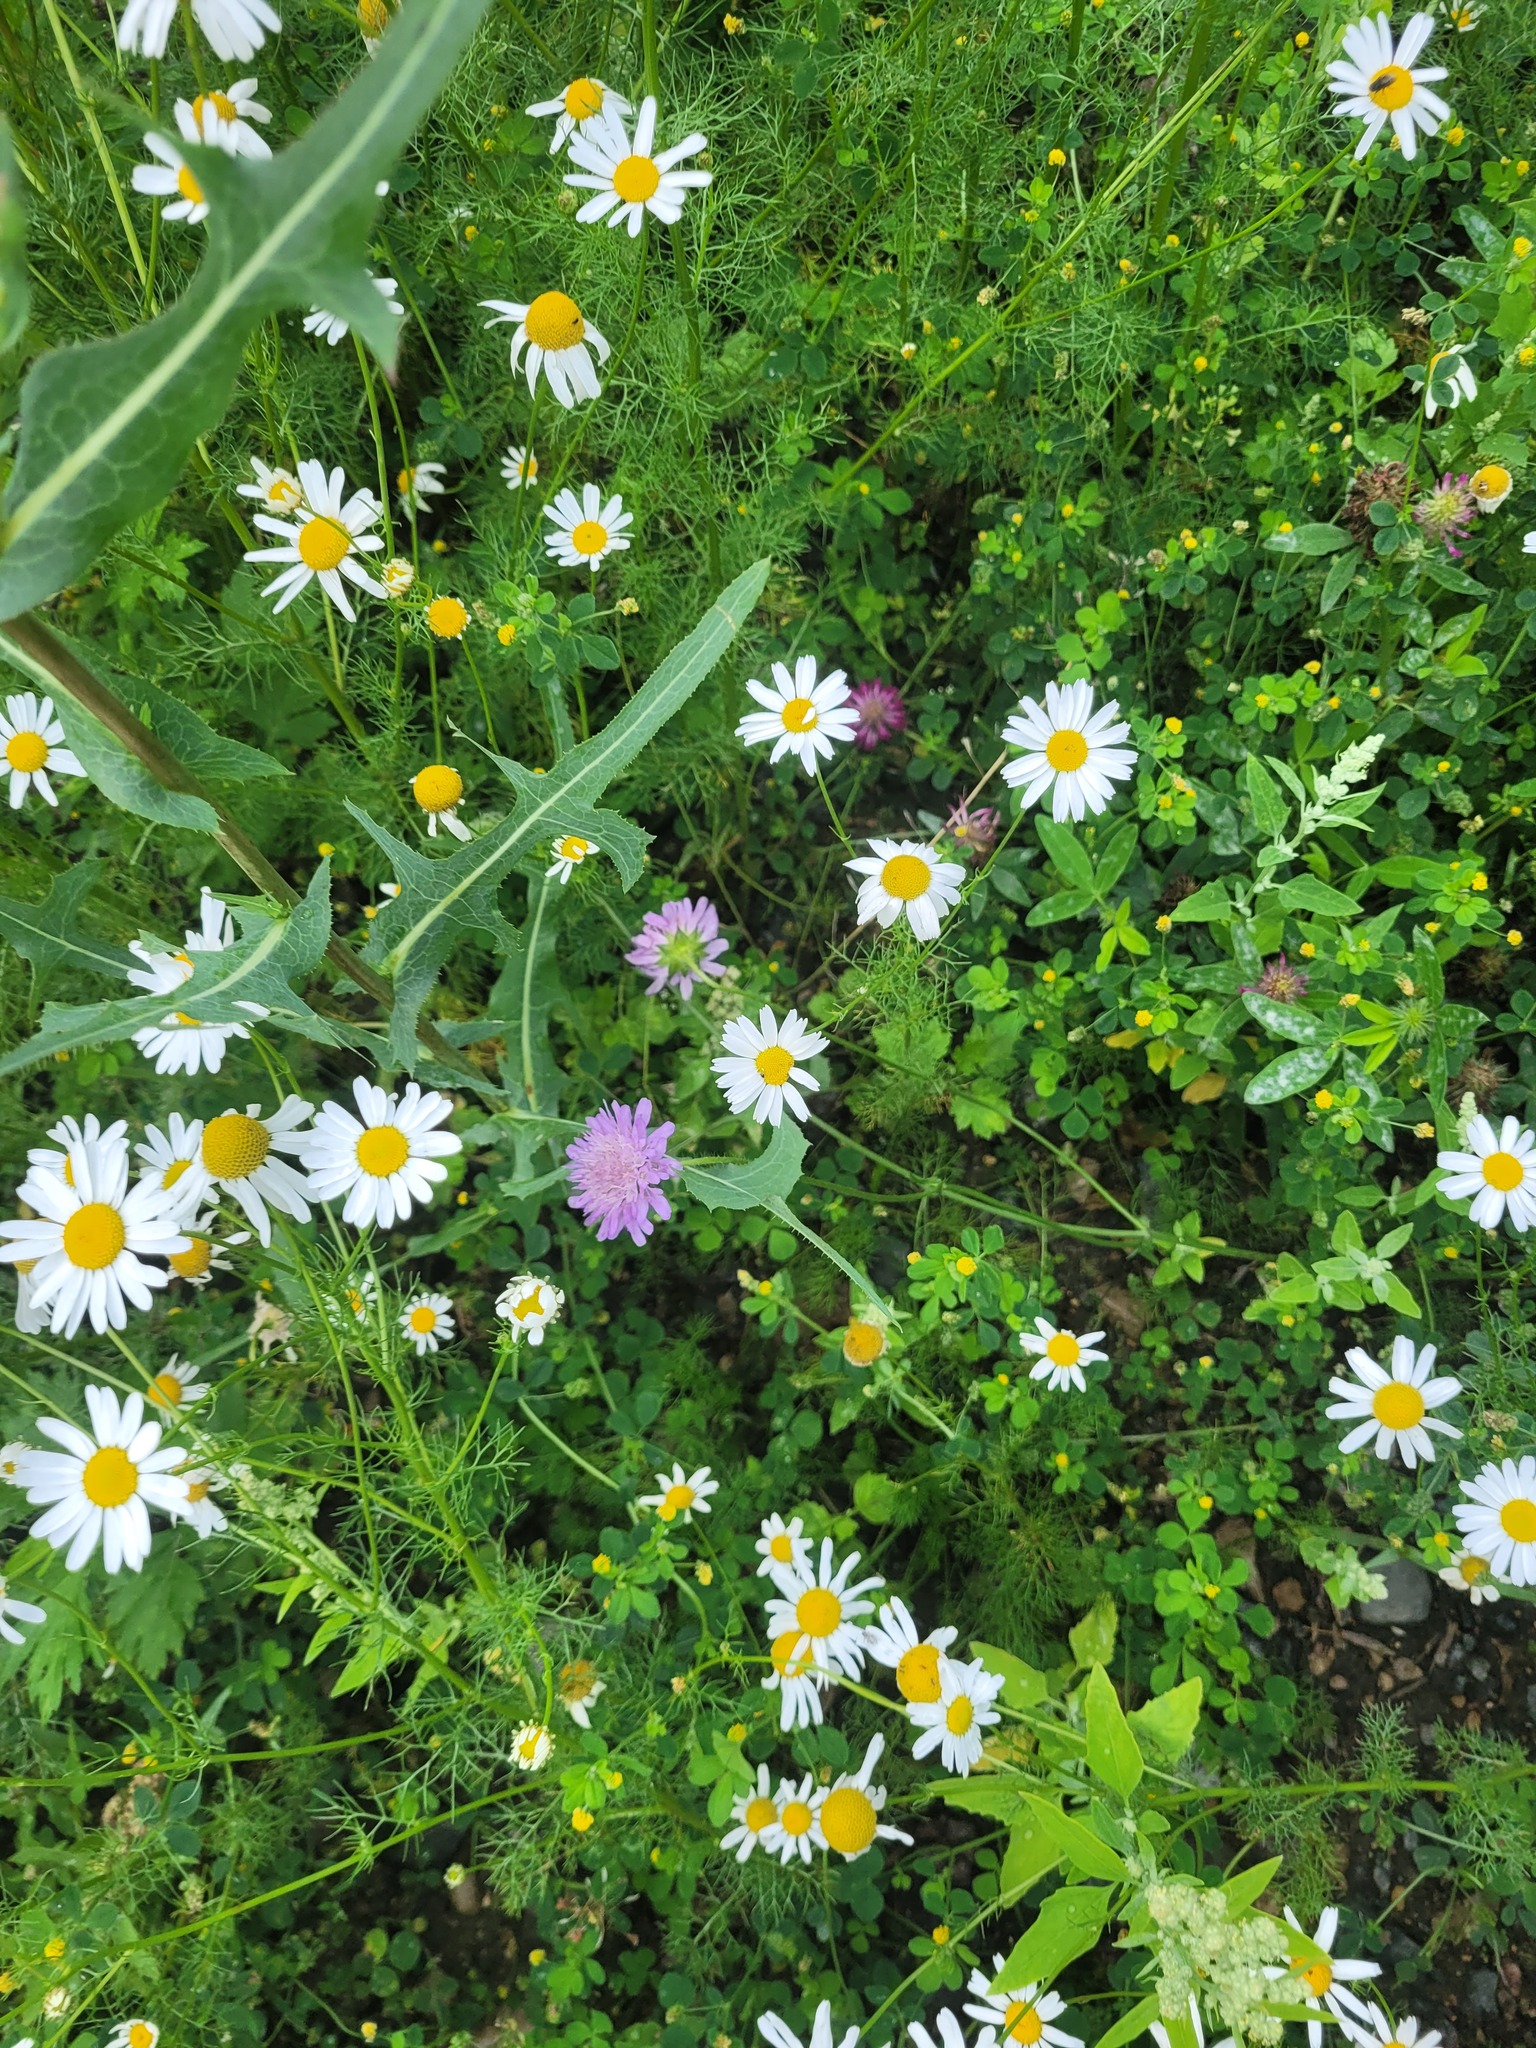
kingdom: Plantae
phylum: Tracheophyta
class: Magnoliopsida
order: Dipsacales
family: Caprifoliaceae
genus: Knautia
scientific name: Knautia arvensis
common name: Field scabiosa
